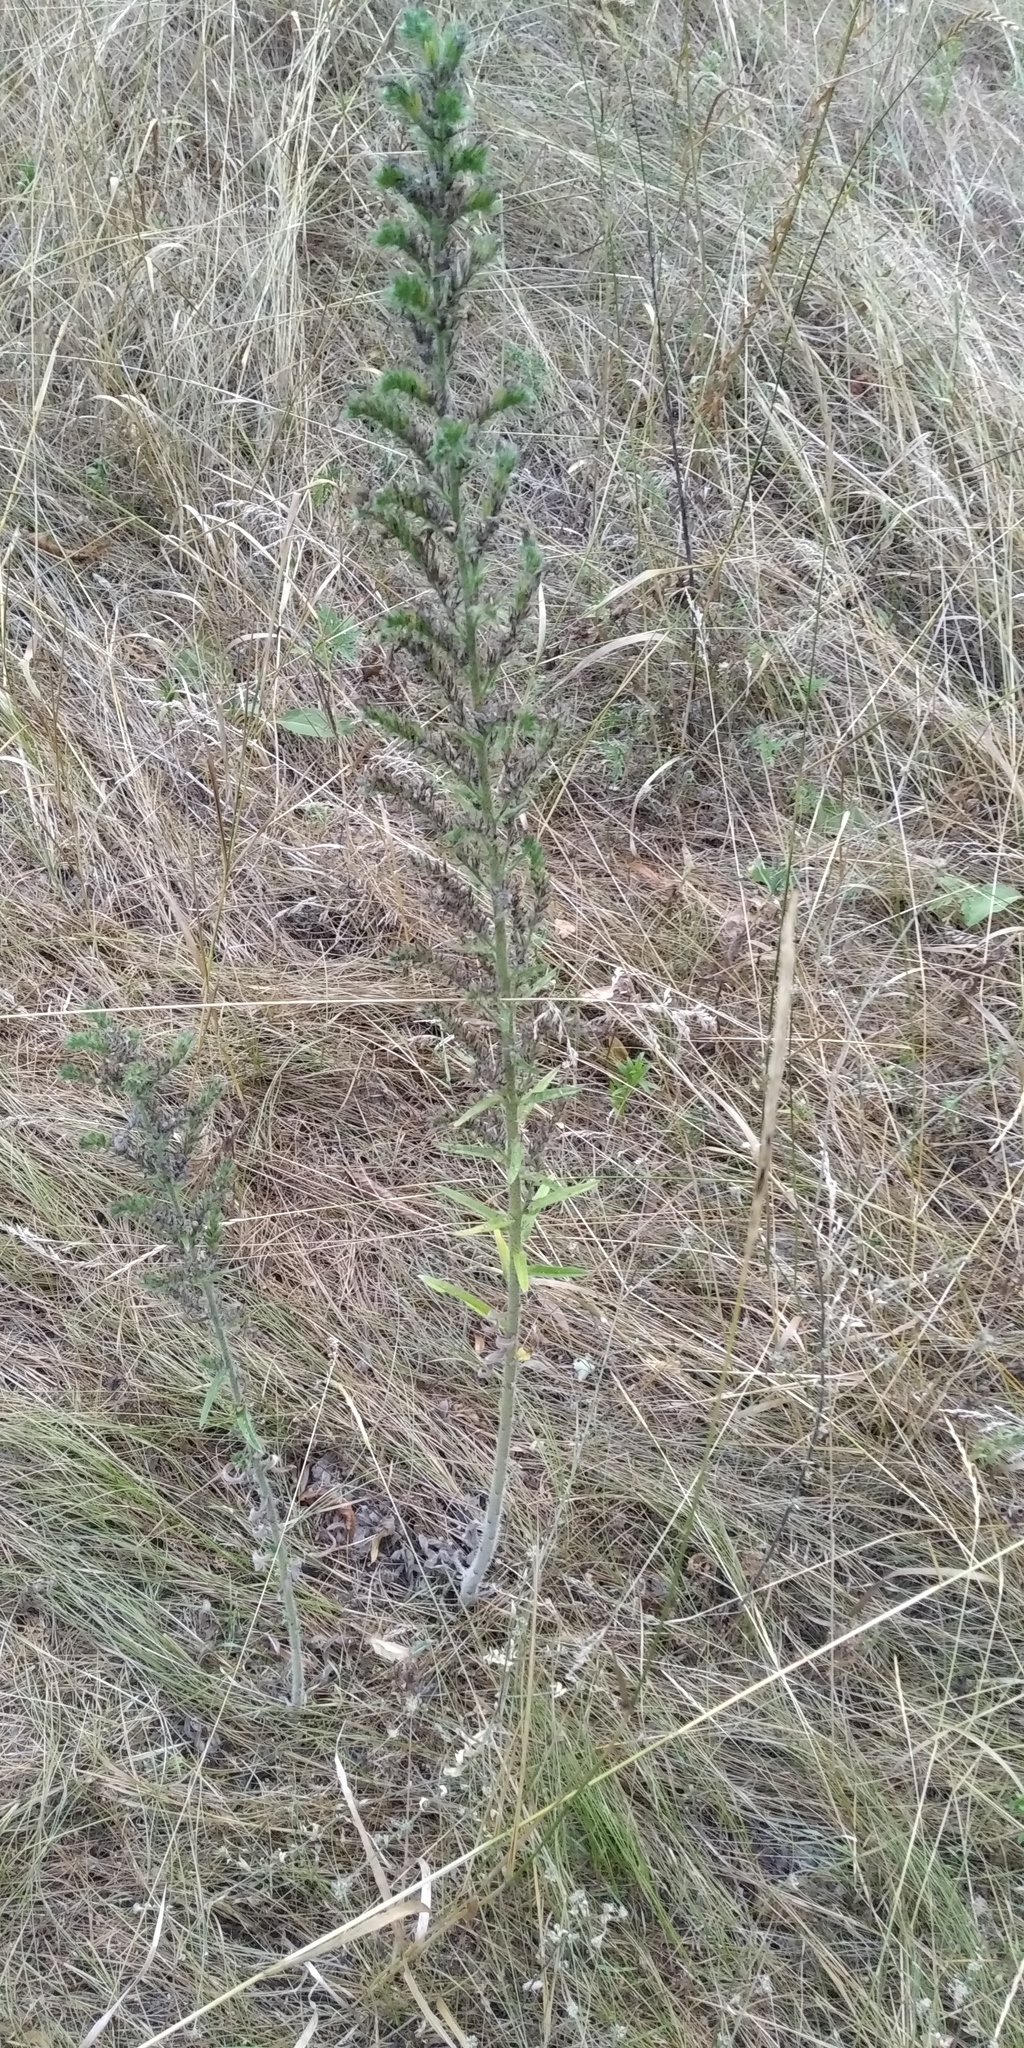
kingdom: Plantae
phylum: Tracheophyta
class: Magnoliopsida
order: Boraginales
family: Boraginaceae
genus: Echium
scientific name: Echium vulgare
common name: Common viper's bugloss
